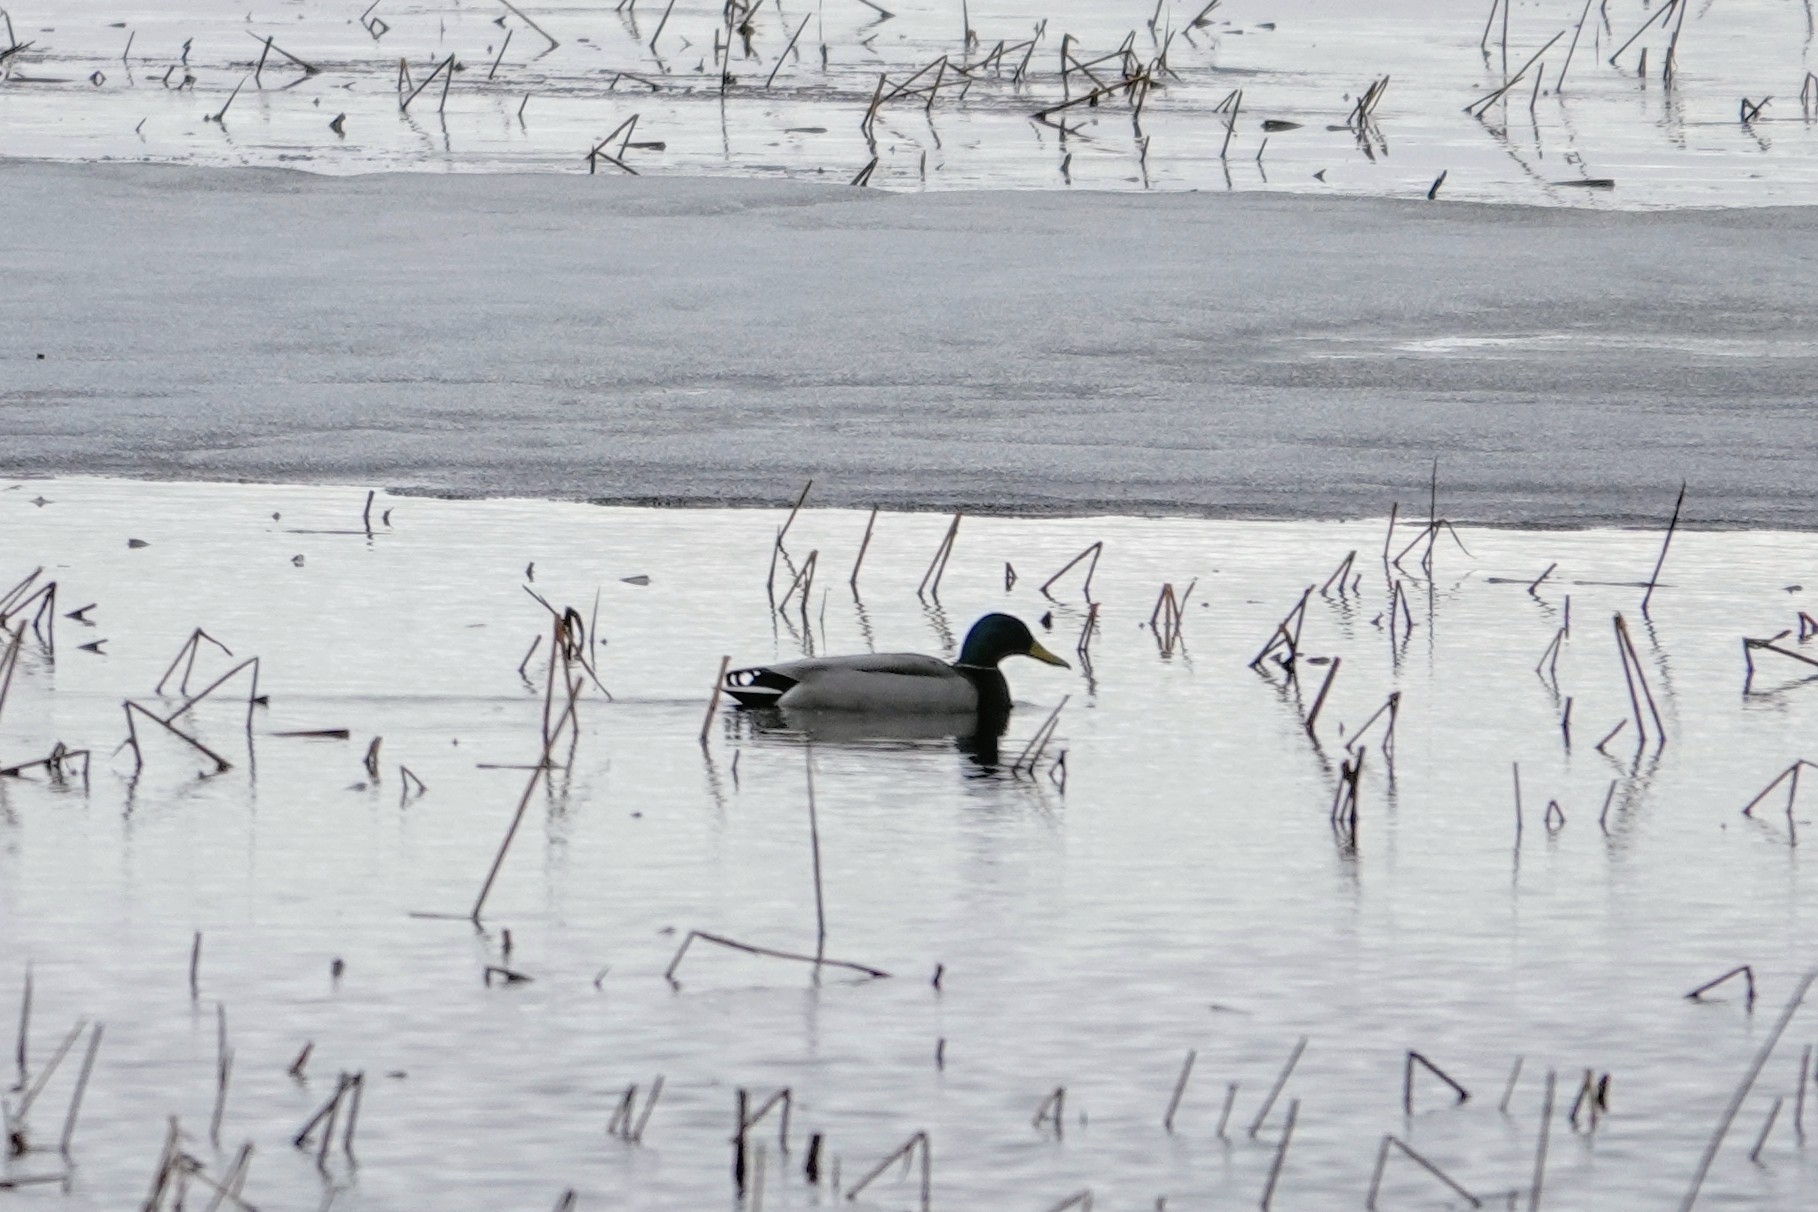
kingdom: Animalia
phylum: Chordata
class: Aves
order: Anseriformes
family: Anatidae
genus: Anas
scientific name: Anas platyrhynchos
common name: Mallard
